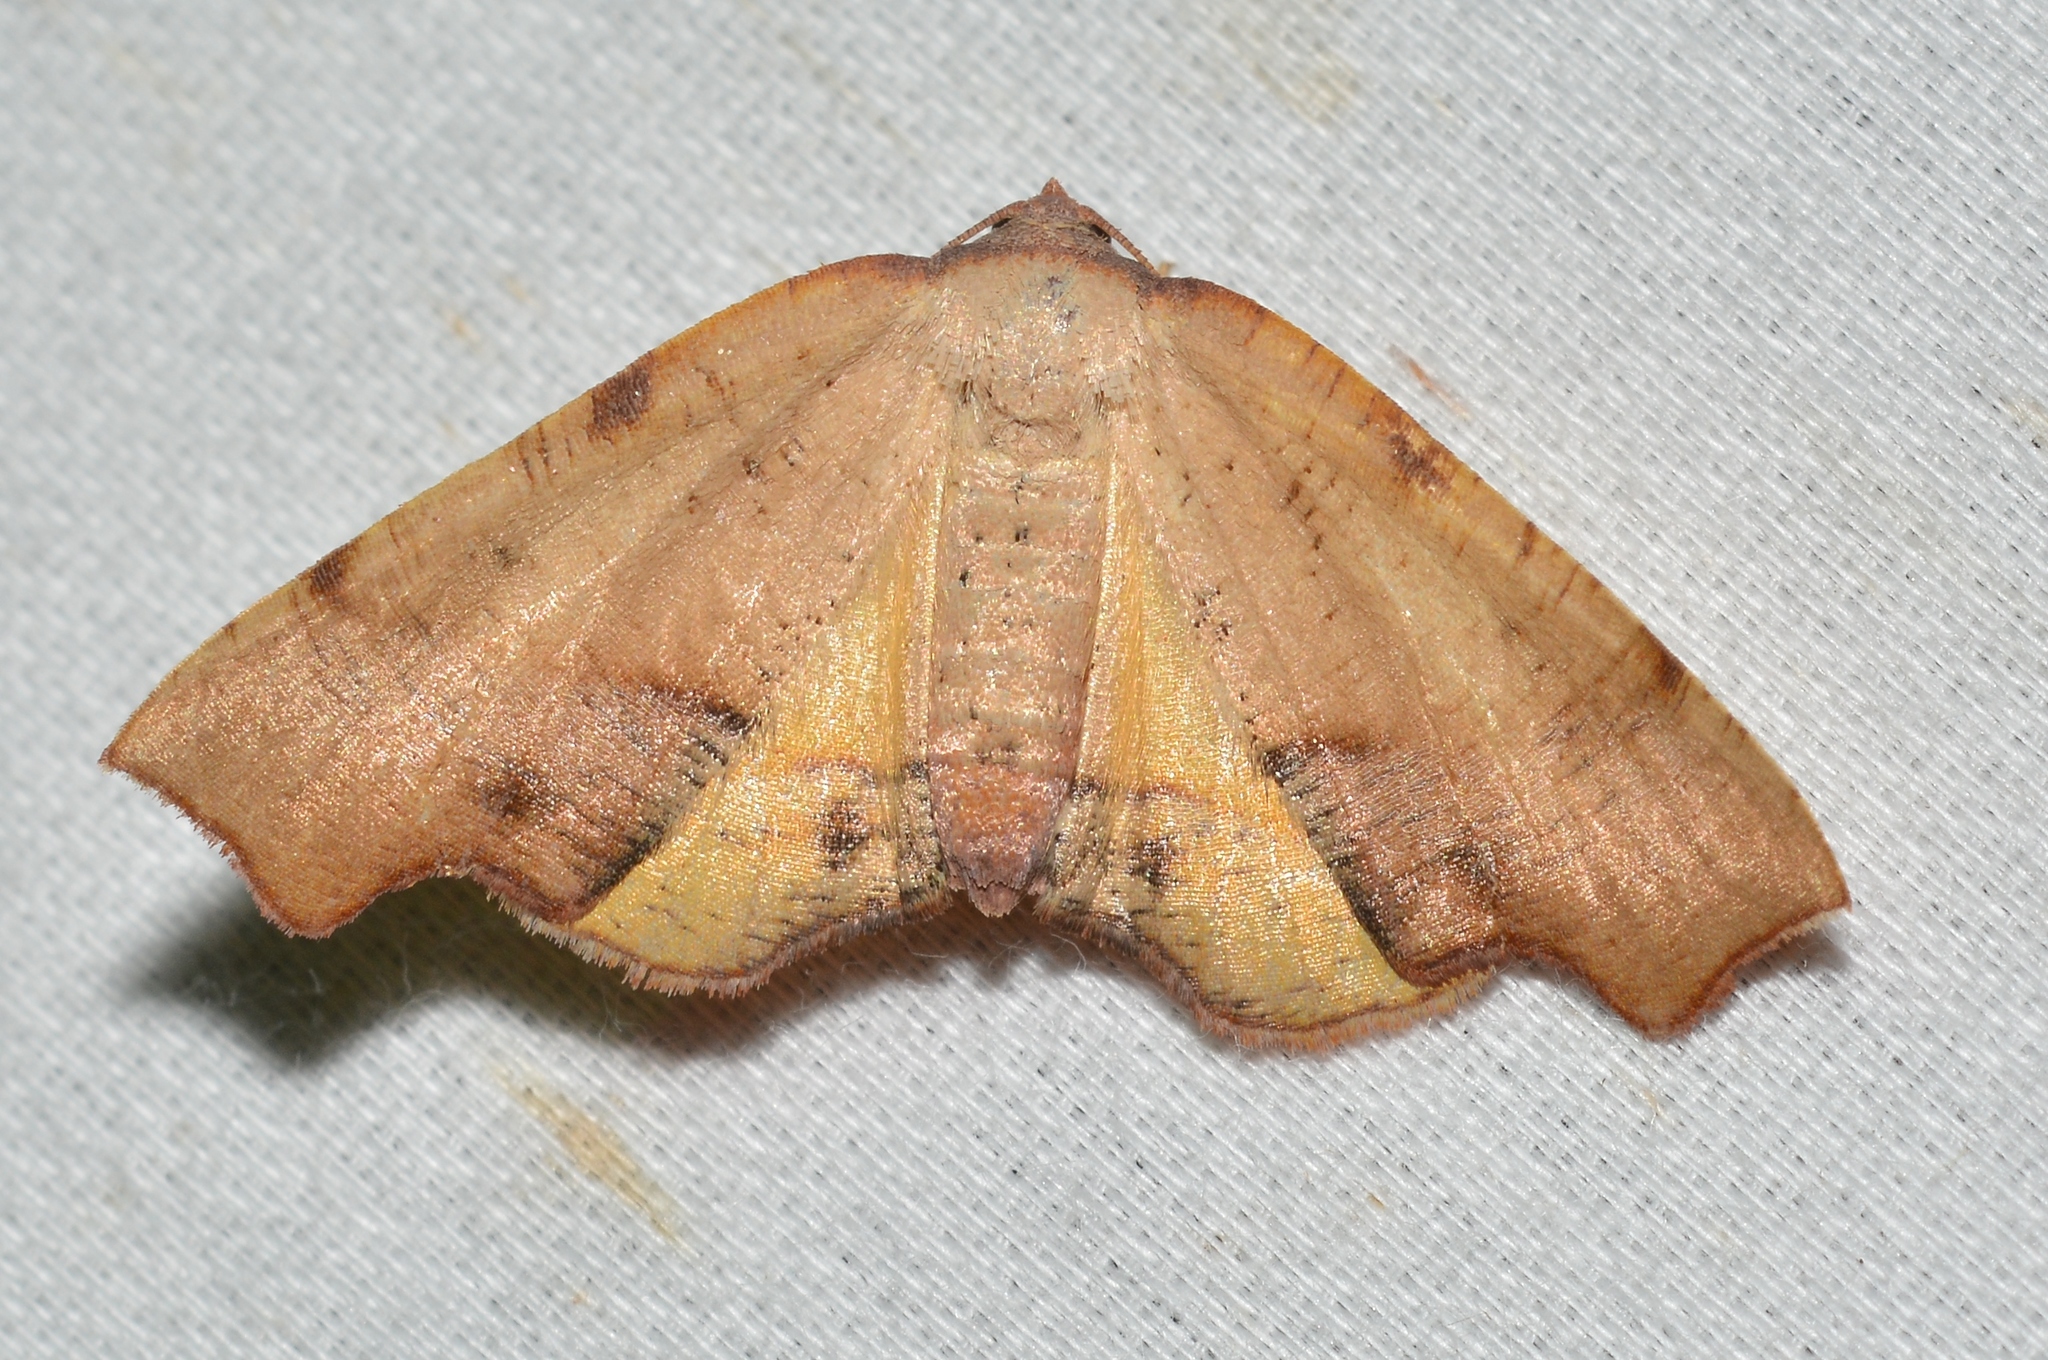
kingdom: Animalia
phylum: Arthropoda
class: Insecta
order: Lepidoptera
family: Geometridae
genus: Plagodis
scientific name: Plagodis fervidaria
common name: Fervid plagodis
